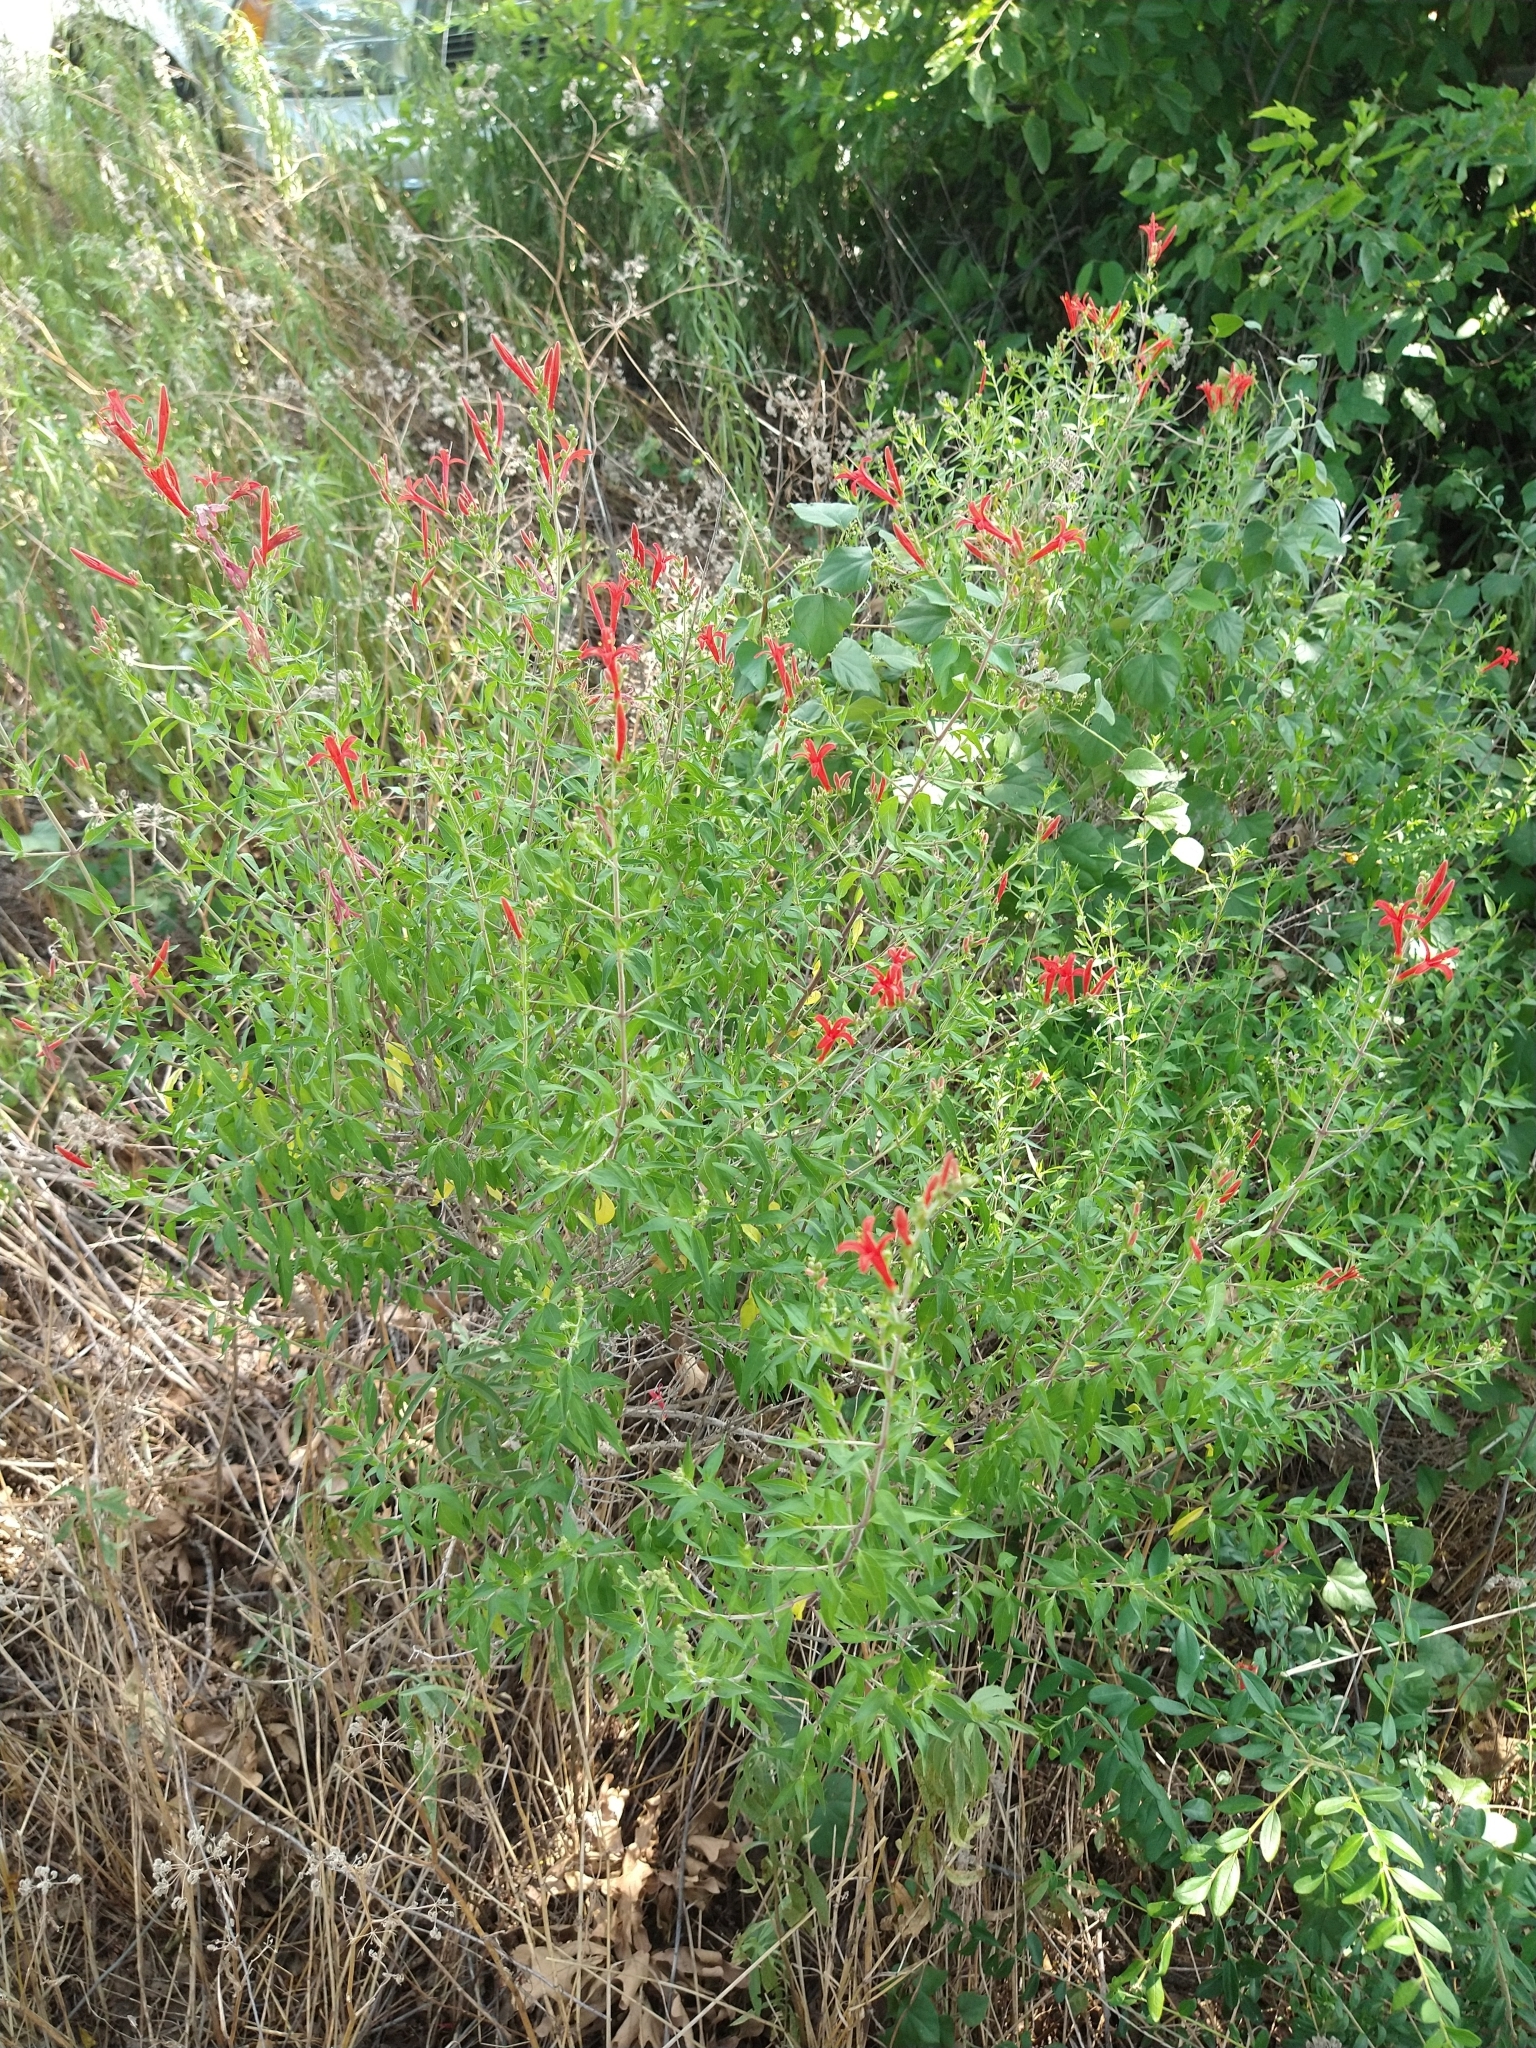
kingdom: Plantae
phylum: Tracheophyta
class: Magnoliopsida
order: Lamiales
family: Acanthaceae
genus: Anisacanthus
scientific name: Anisacanthus quadrifidus
